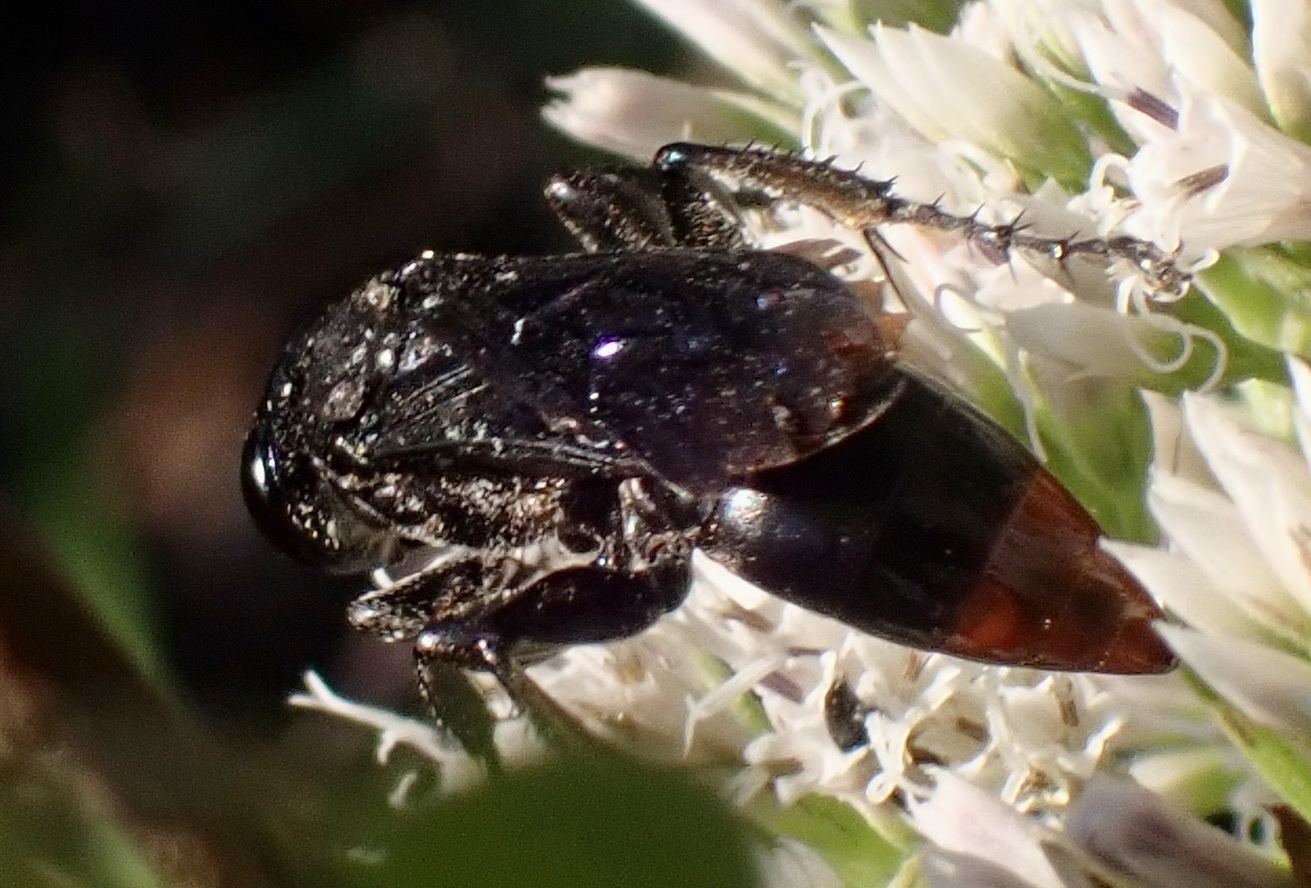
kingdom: Animalia
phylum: Arthropoda
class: Insecta
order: Hymenoptera
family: Crabronidae
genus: Larra
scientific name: Larra analis
